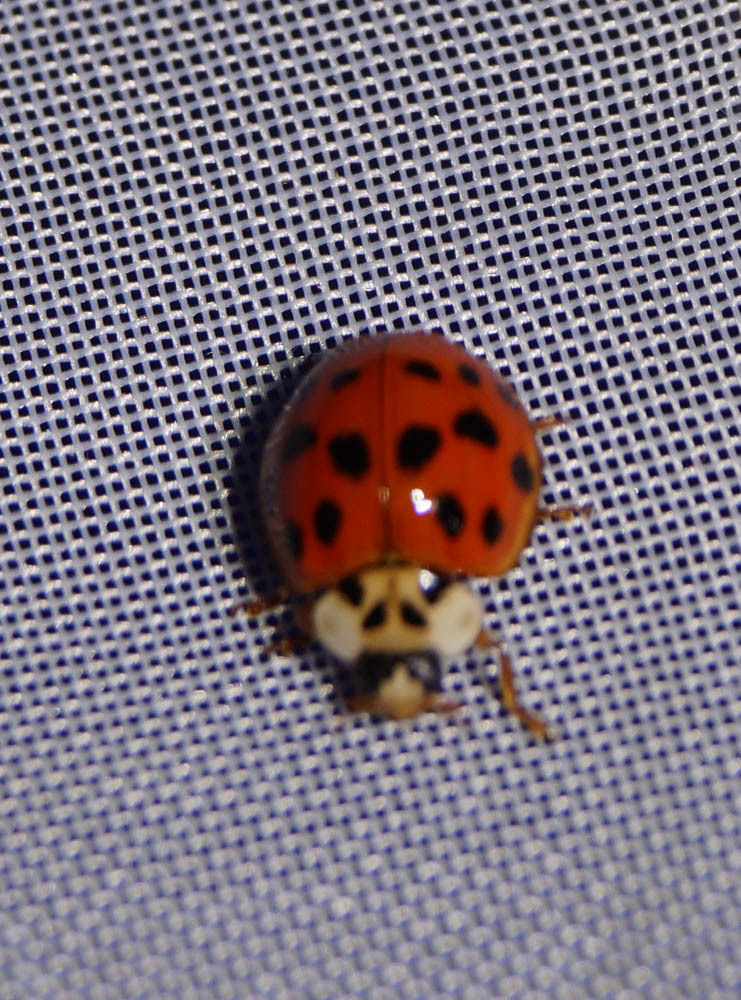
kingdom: Animalia
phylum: Arthropoda
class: Insecta
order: Coleoptera
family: Coccinellidae
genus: Harmonia
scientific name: Harmonia axyridis
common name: Harlequin ladybird
